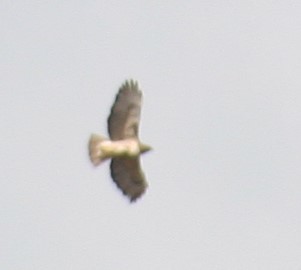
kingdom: Animalia
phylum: Chordata
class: Aves
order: Accipitriformes
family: Accipitridae
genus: Buteo
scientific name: Buteo jamaicensis
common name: Red-tailed hawk
